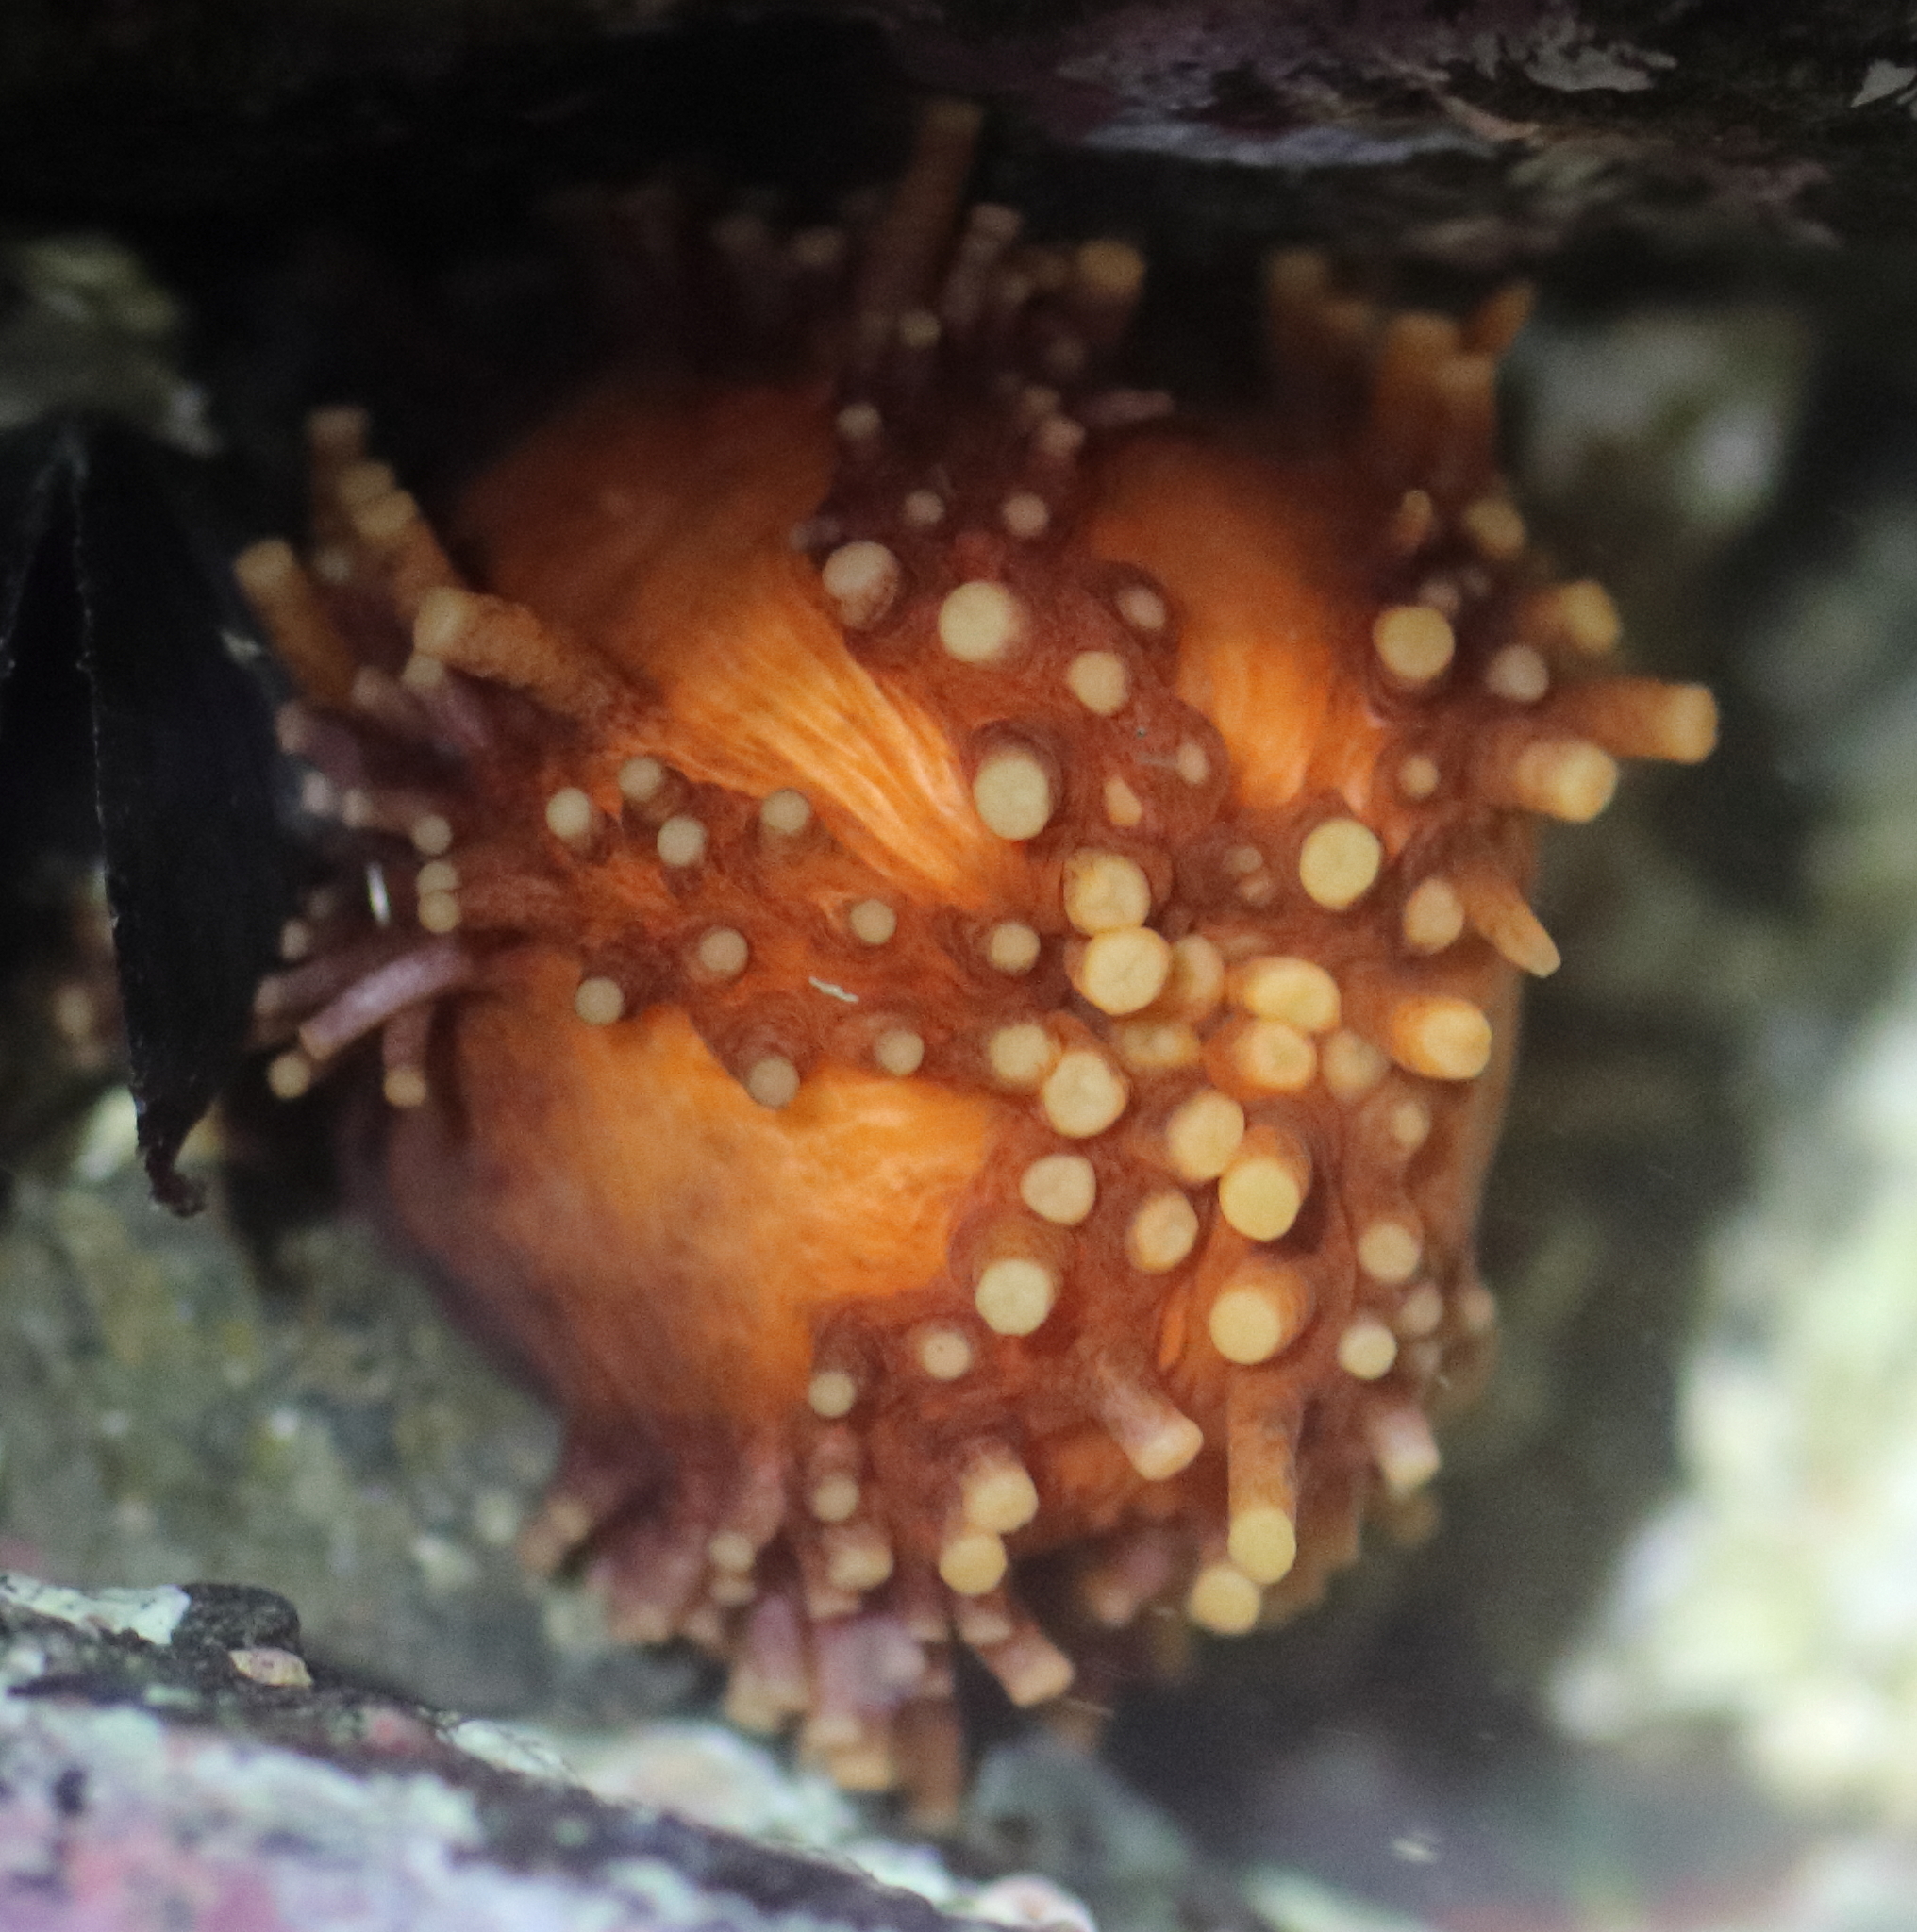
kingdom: Animalia
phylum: Echinodermata
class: Holothuroidea
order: Dendrochirotida
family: Cucumariidae
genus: Cucumaria
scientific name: Cucumaria miniata
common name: Orange sea cucumber
